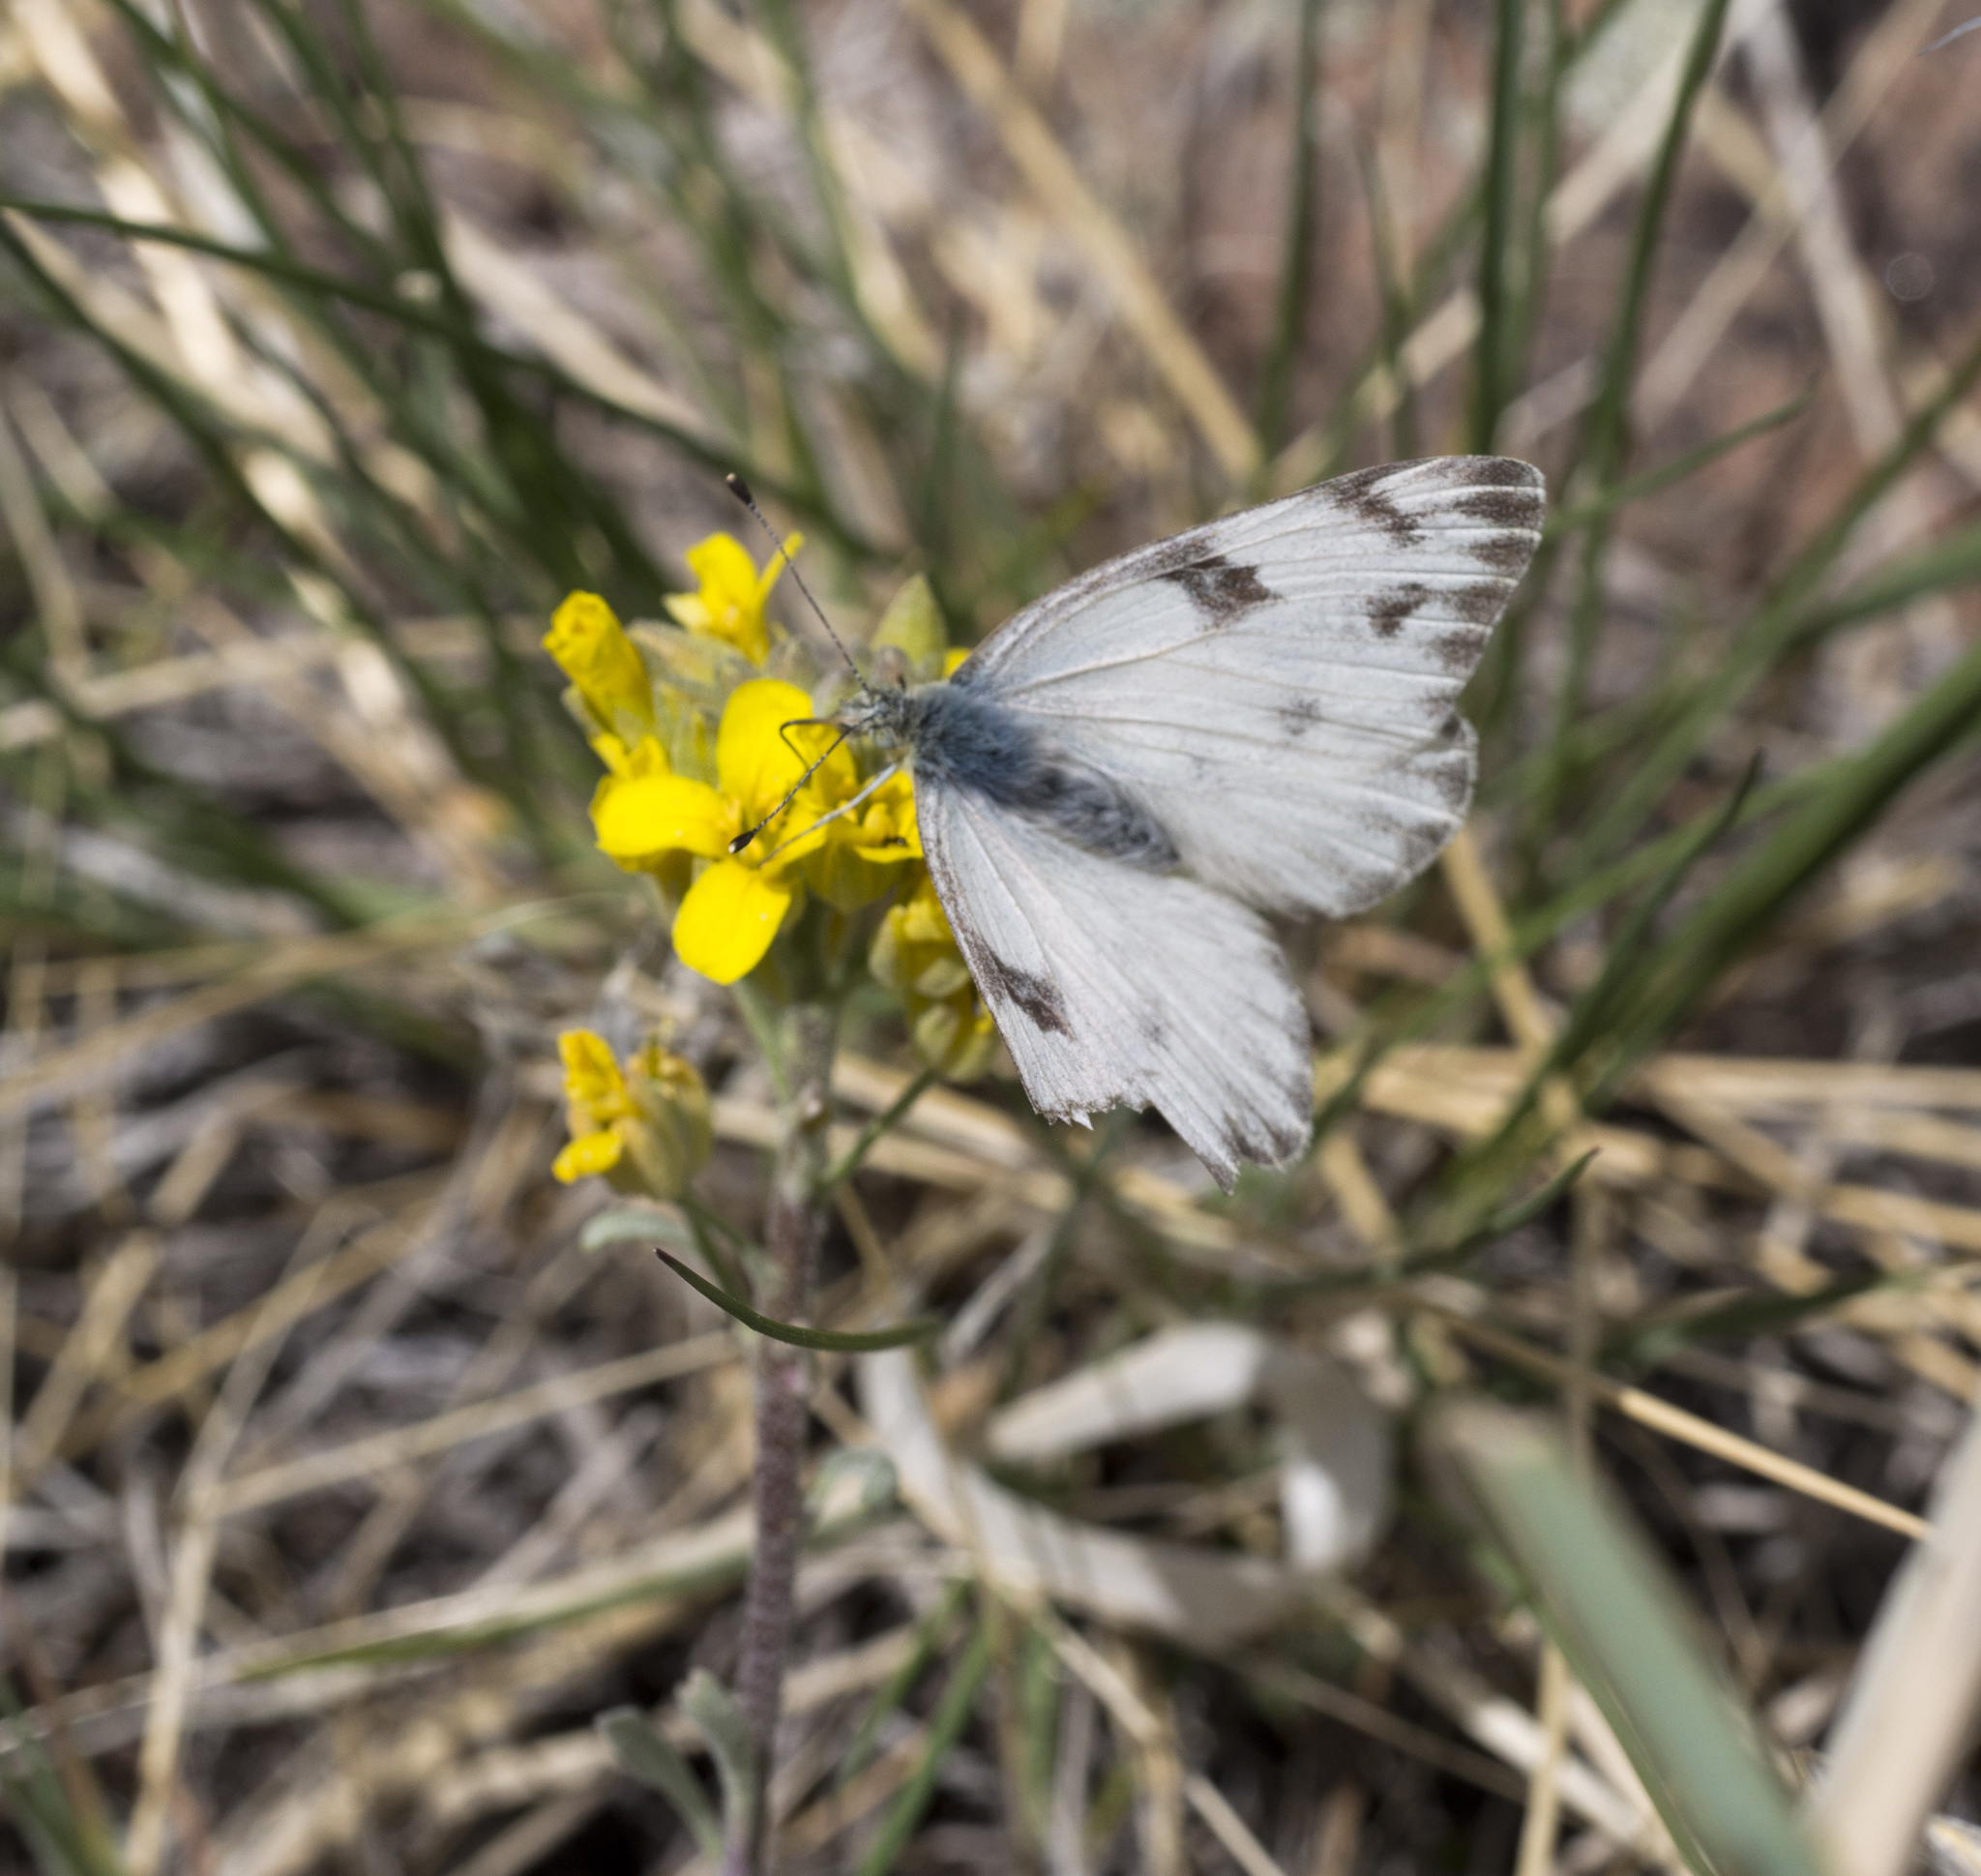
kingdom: Animalia
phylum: Arthropoda
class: Insecta
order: Lepidoptera
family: Pieridae
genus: Pontia
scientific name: Pontia protodice
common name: Checkered white
